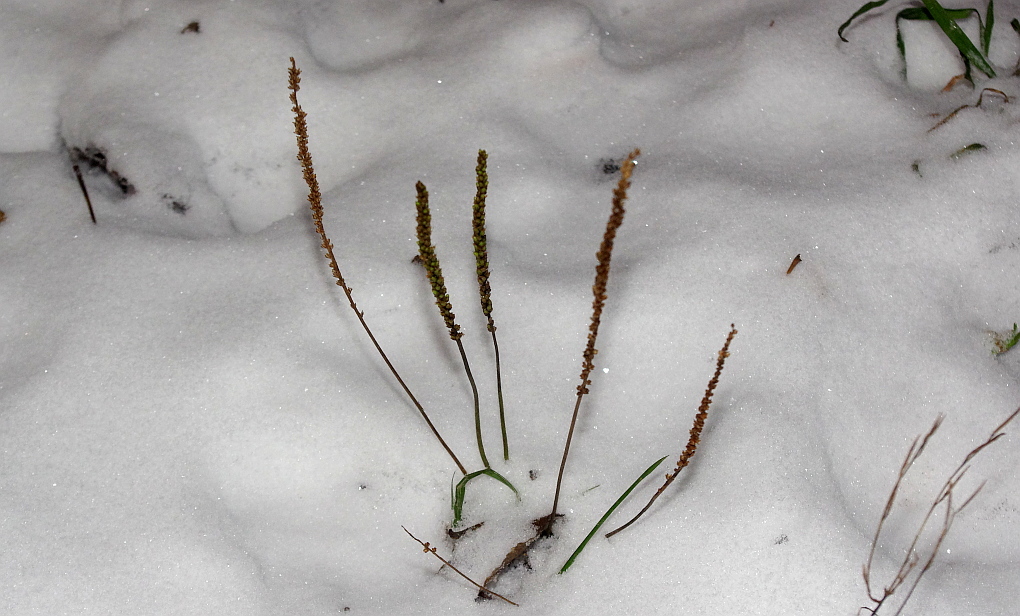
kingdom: Plantae
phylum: Tracheophyta
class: Magnoliopsida
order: Lamiales
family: Plantaginaceae
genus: Plantago
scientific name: Plantago major
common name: Common plantain
